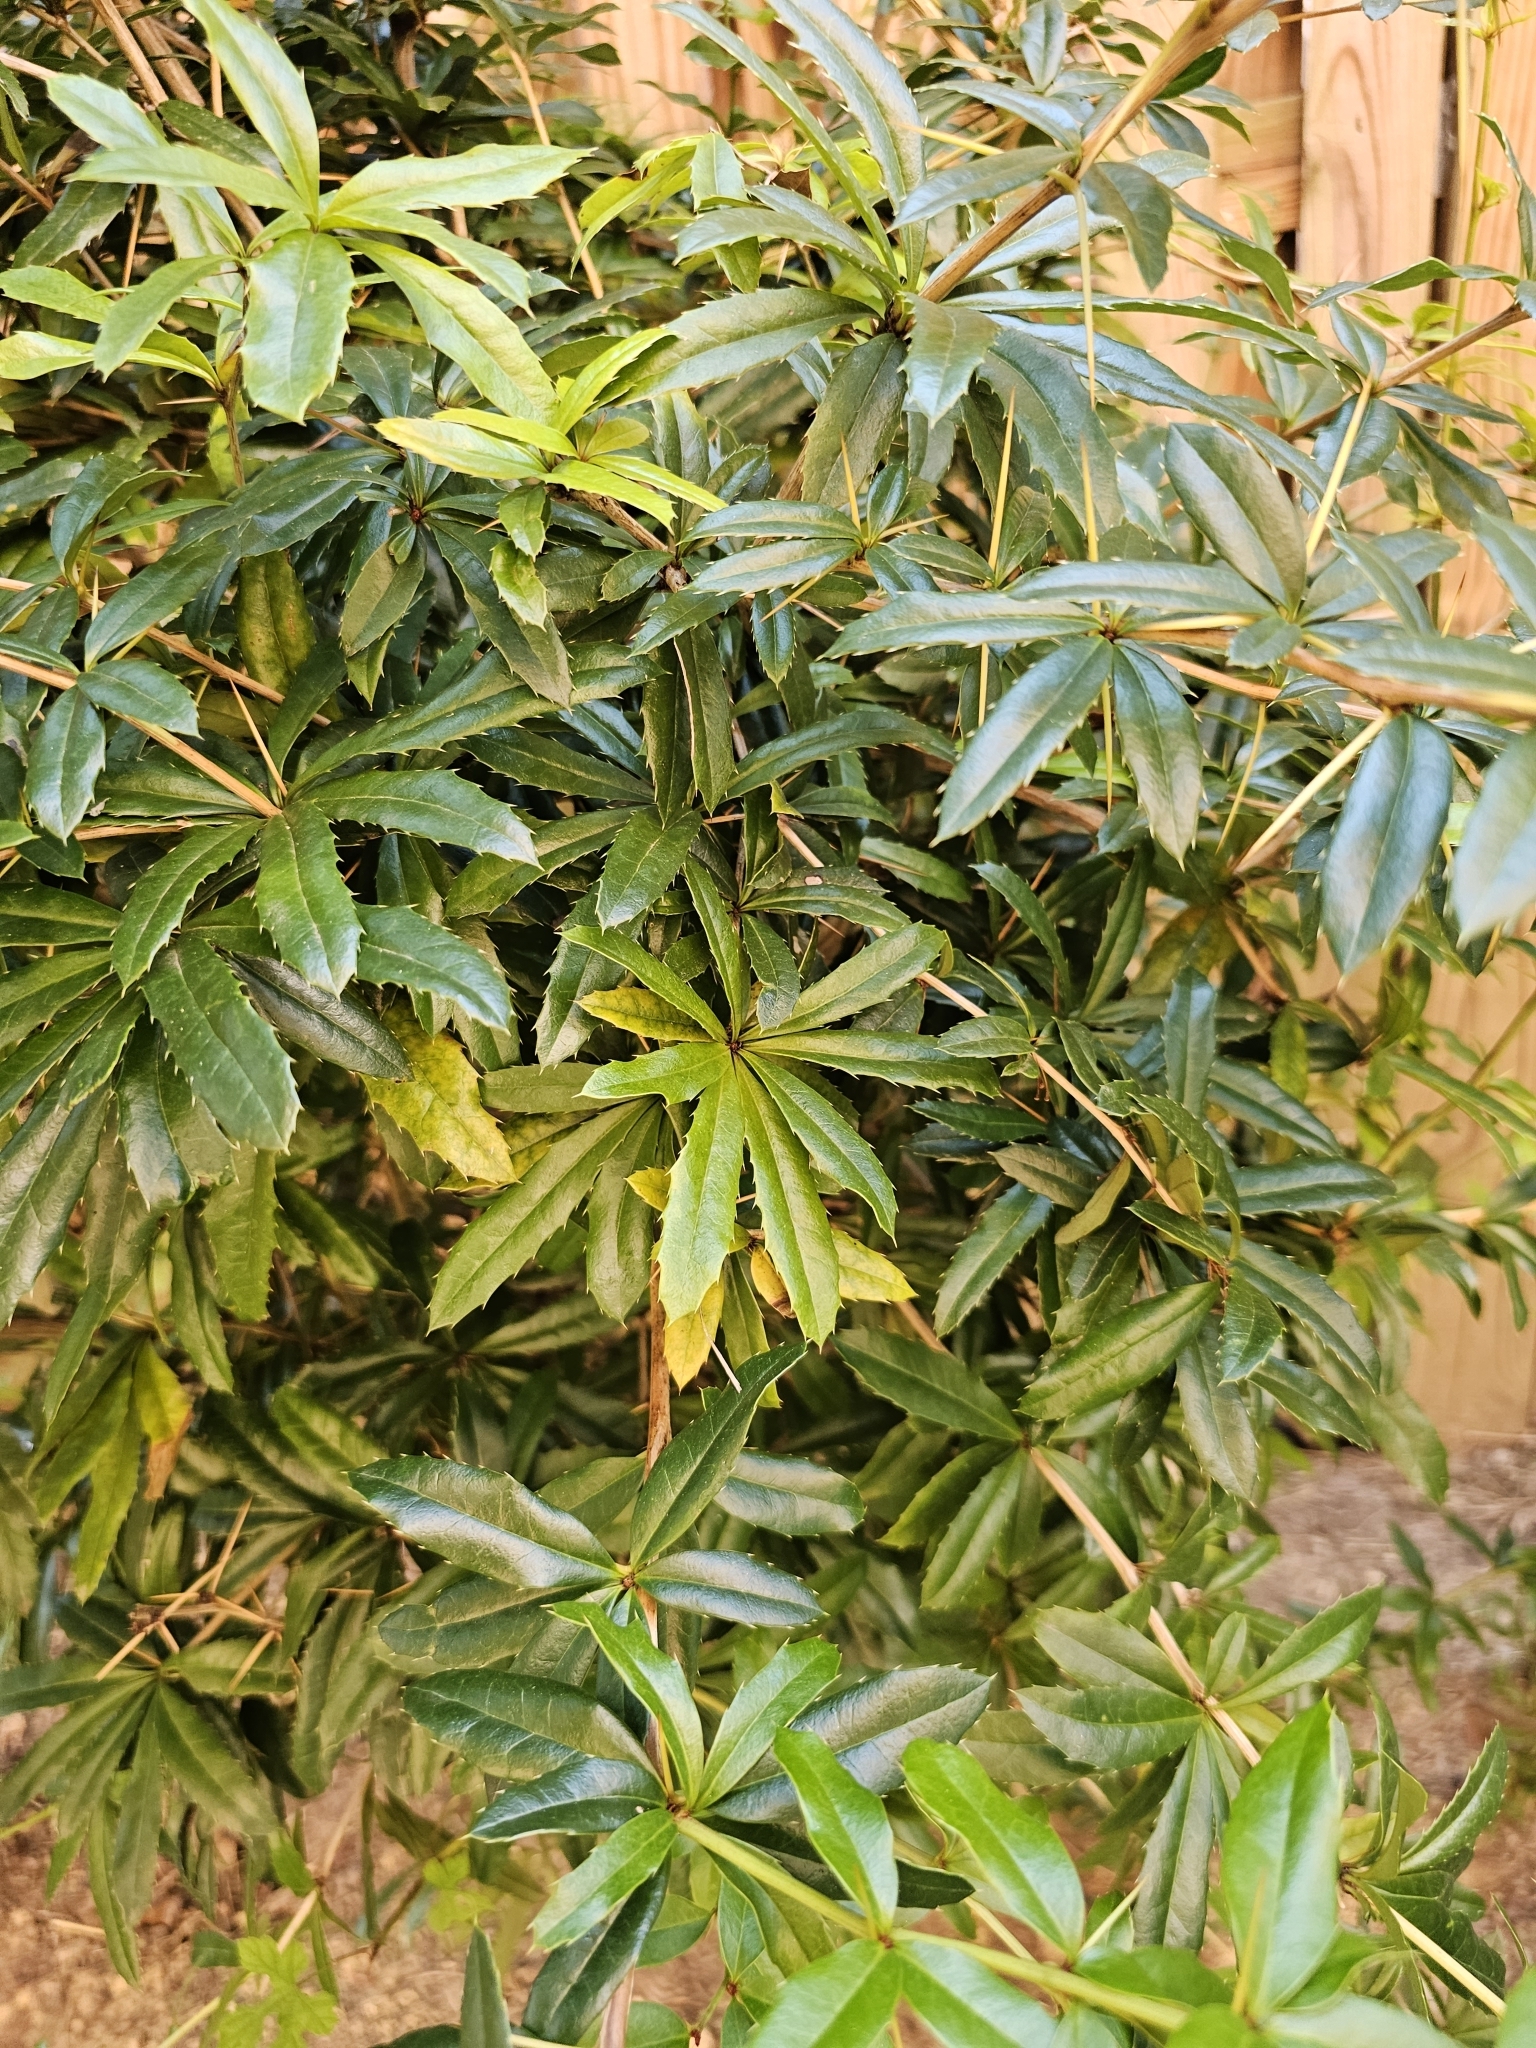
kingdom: Plantae
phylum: Tracheophyta
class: Magnoliopsida
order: Ranunculales
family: Berberidaceae
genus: Berberis
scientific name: Berberis julianae
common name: Wintergreen barberry
